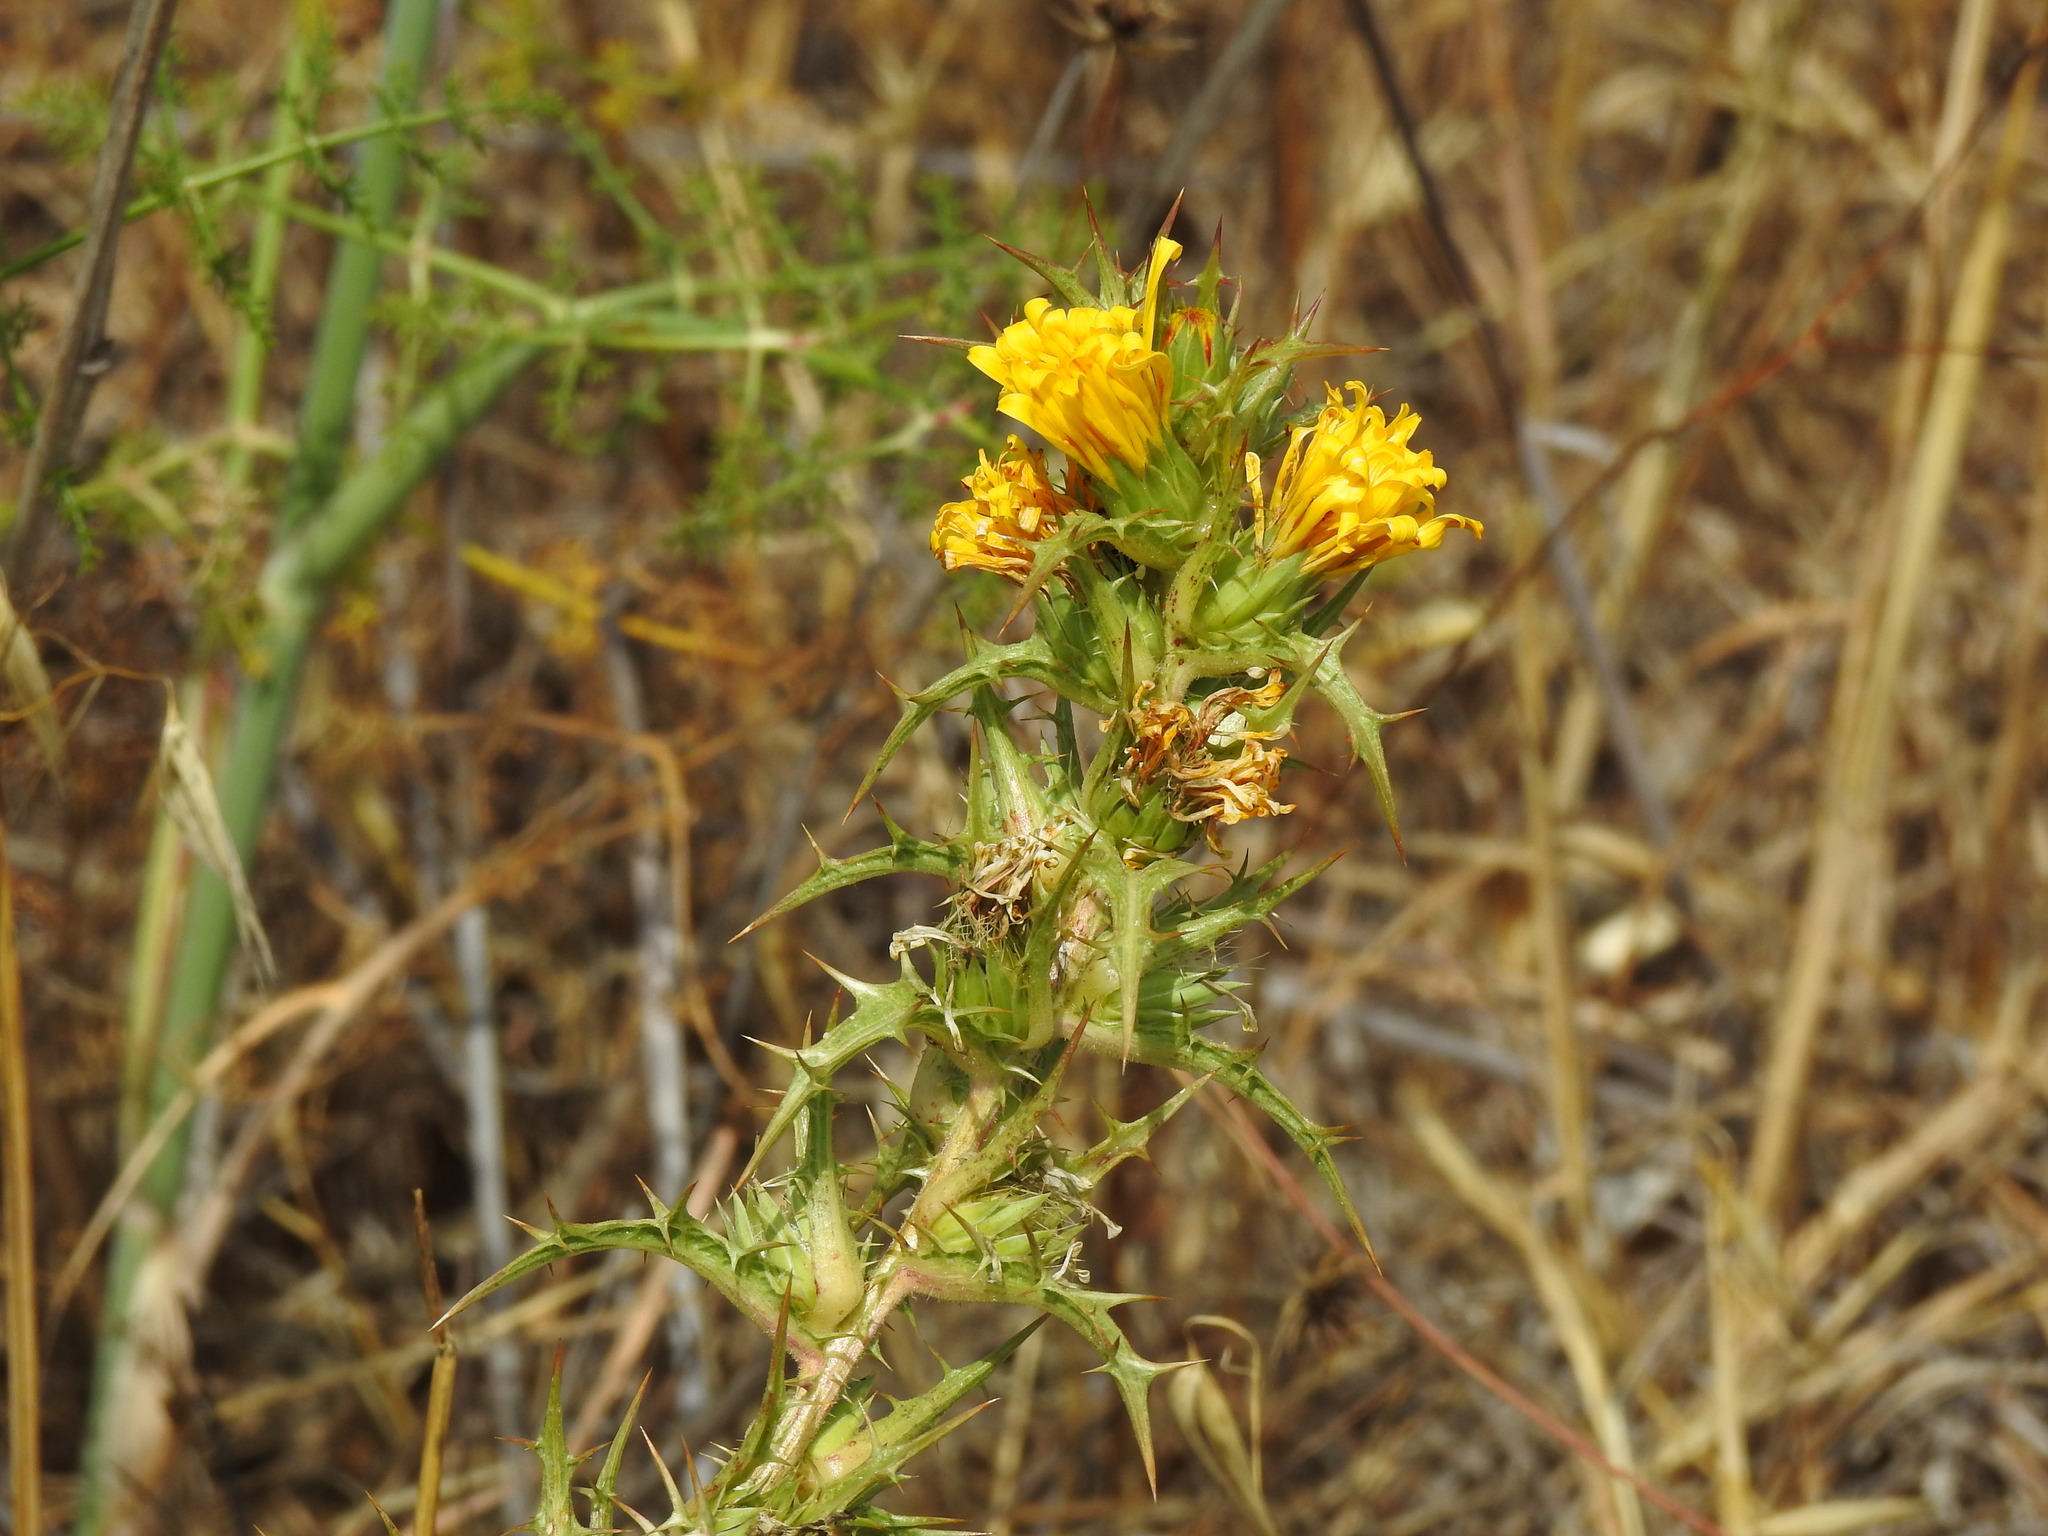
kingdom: Plantae
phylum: Tracheophyta
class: Magnoliopsida
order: Asterales
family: Asteraceae
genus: Scolymus
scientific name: Scolymus hispanicus
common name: Golden thistle
